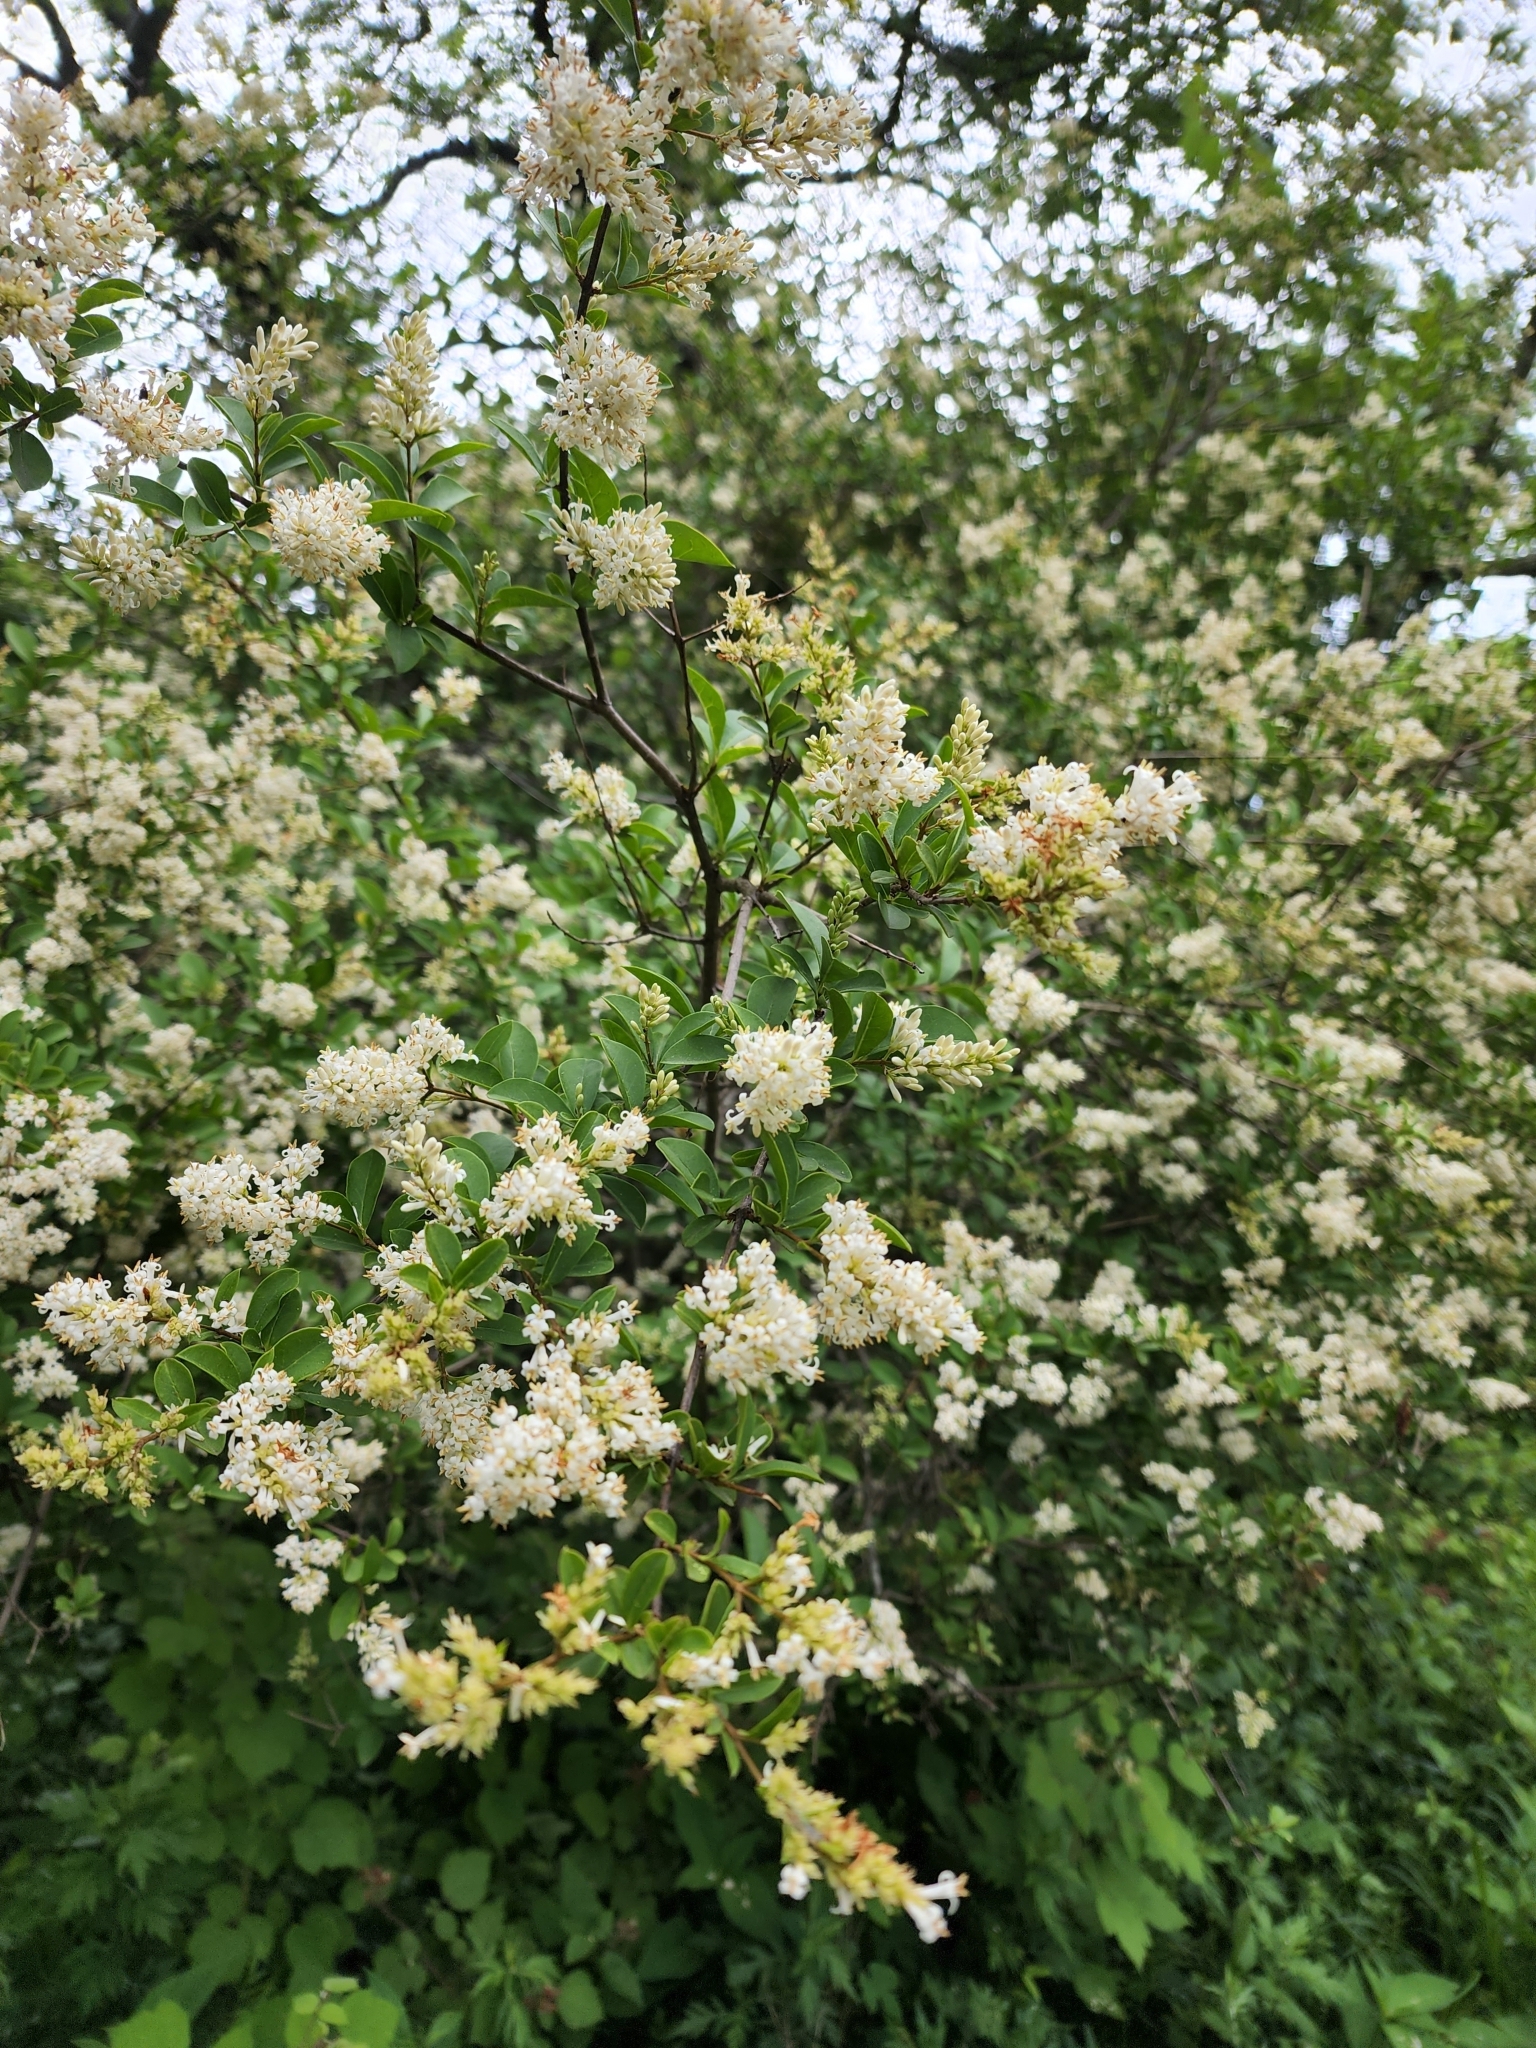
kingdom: Plantae
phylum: Tracheophyta
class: Magnoliopsida
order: Lamiales
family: Oleaceae
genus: Ligustrum
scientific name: Ligustrum obtusifolium
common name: Border privet
